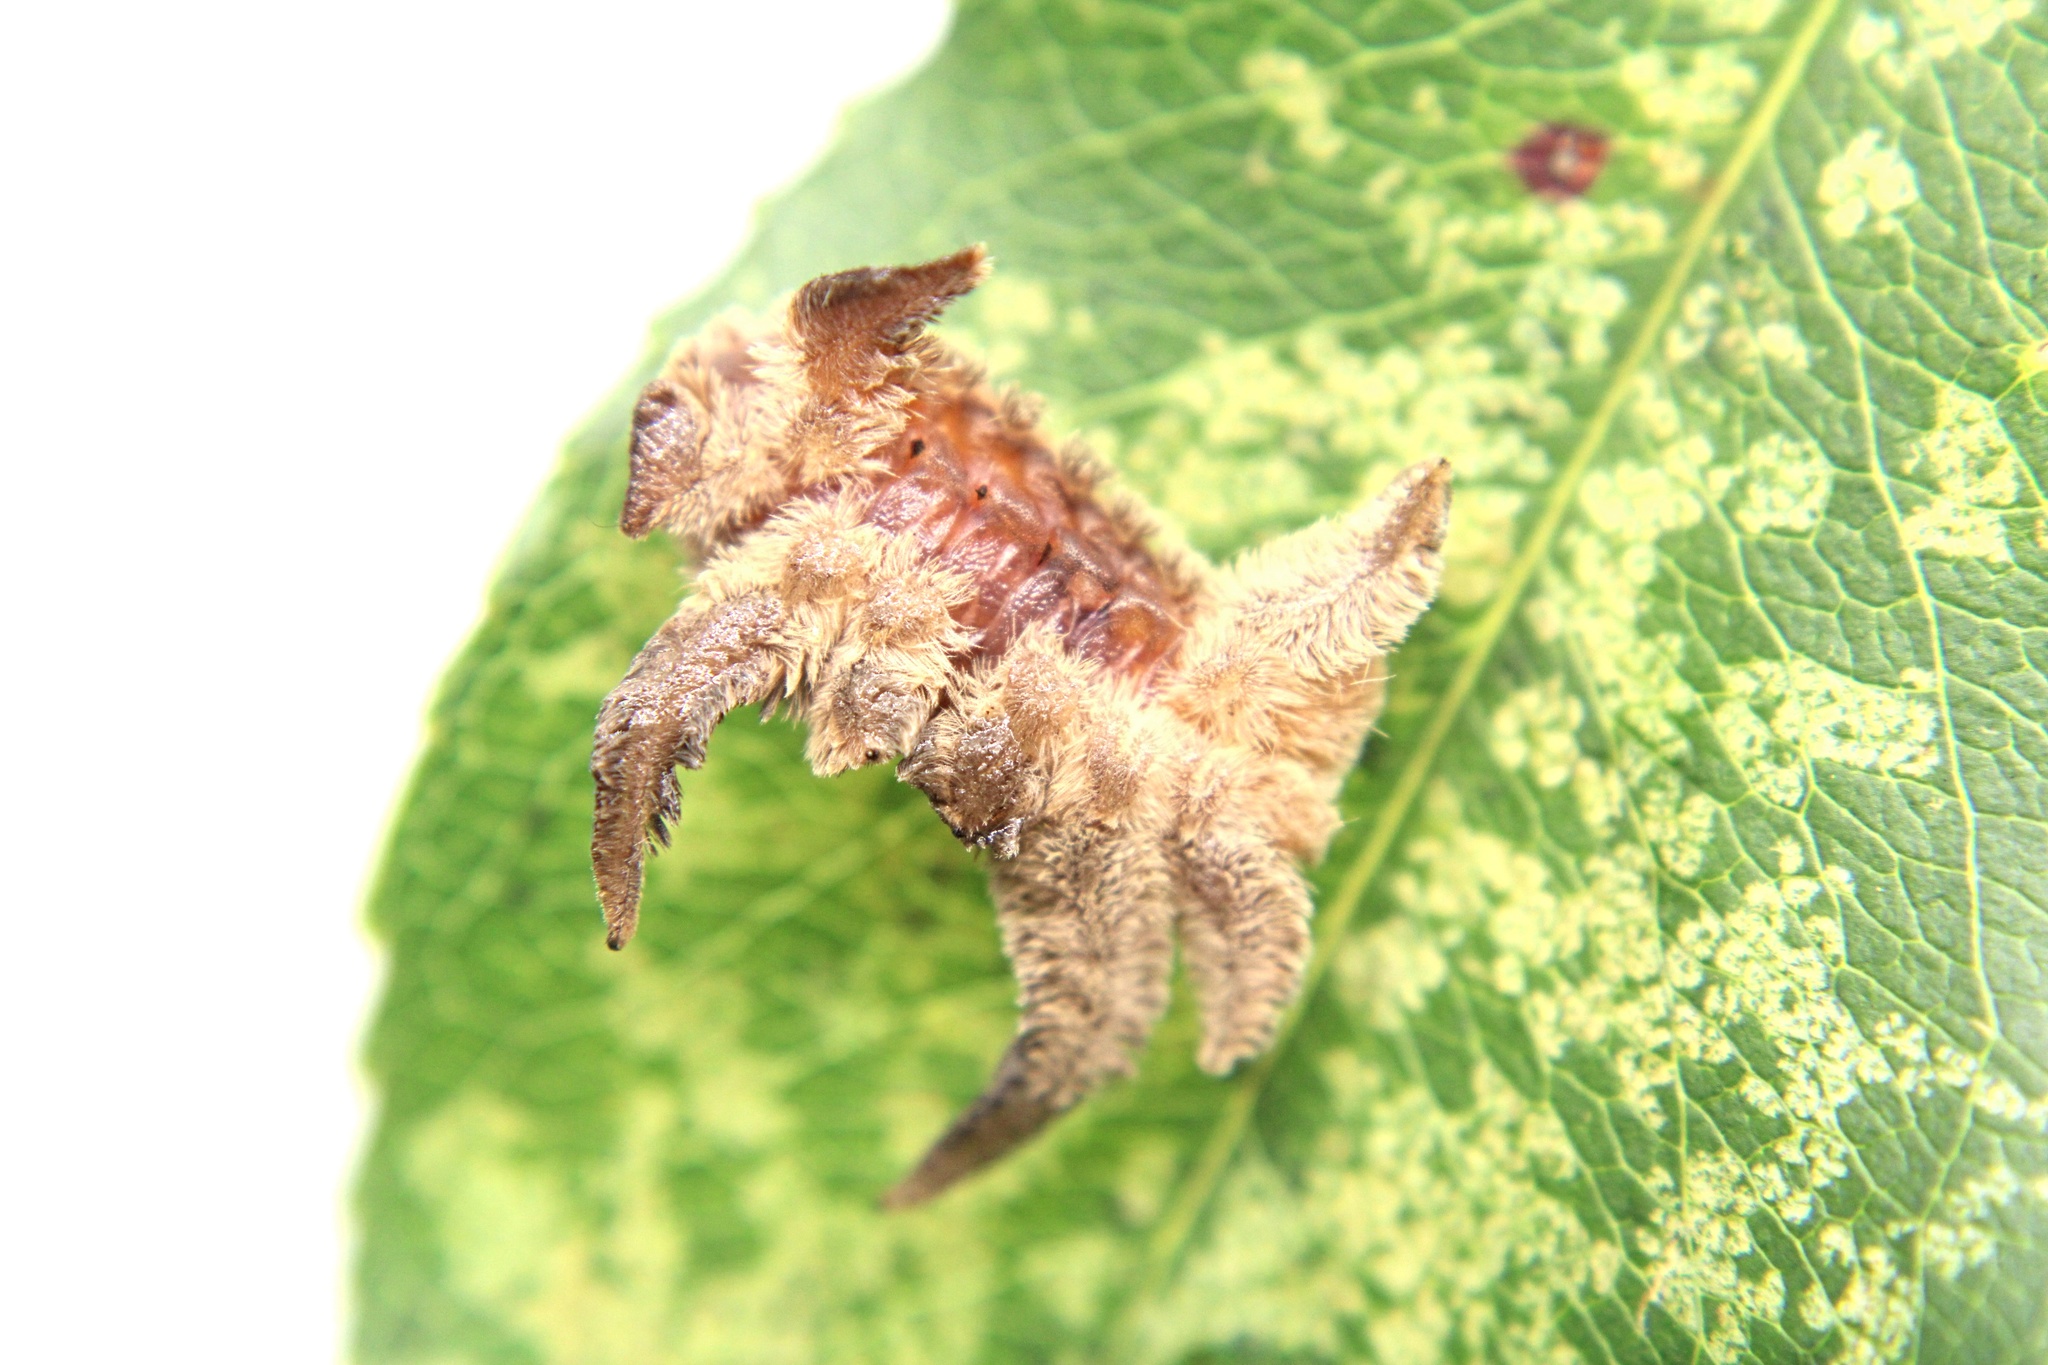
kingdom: Animalia
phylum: Arthropoda
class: Insecta
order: Lepidoptera
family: Limacodidae
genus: Phobetron
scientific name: Phobetron pithecium
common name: Hag moth
